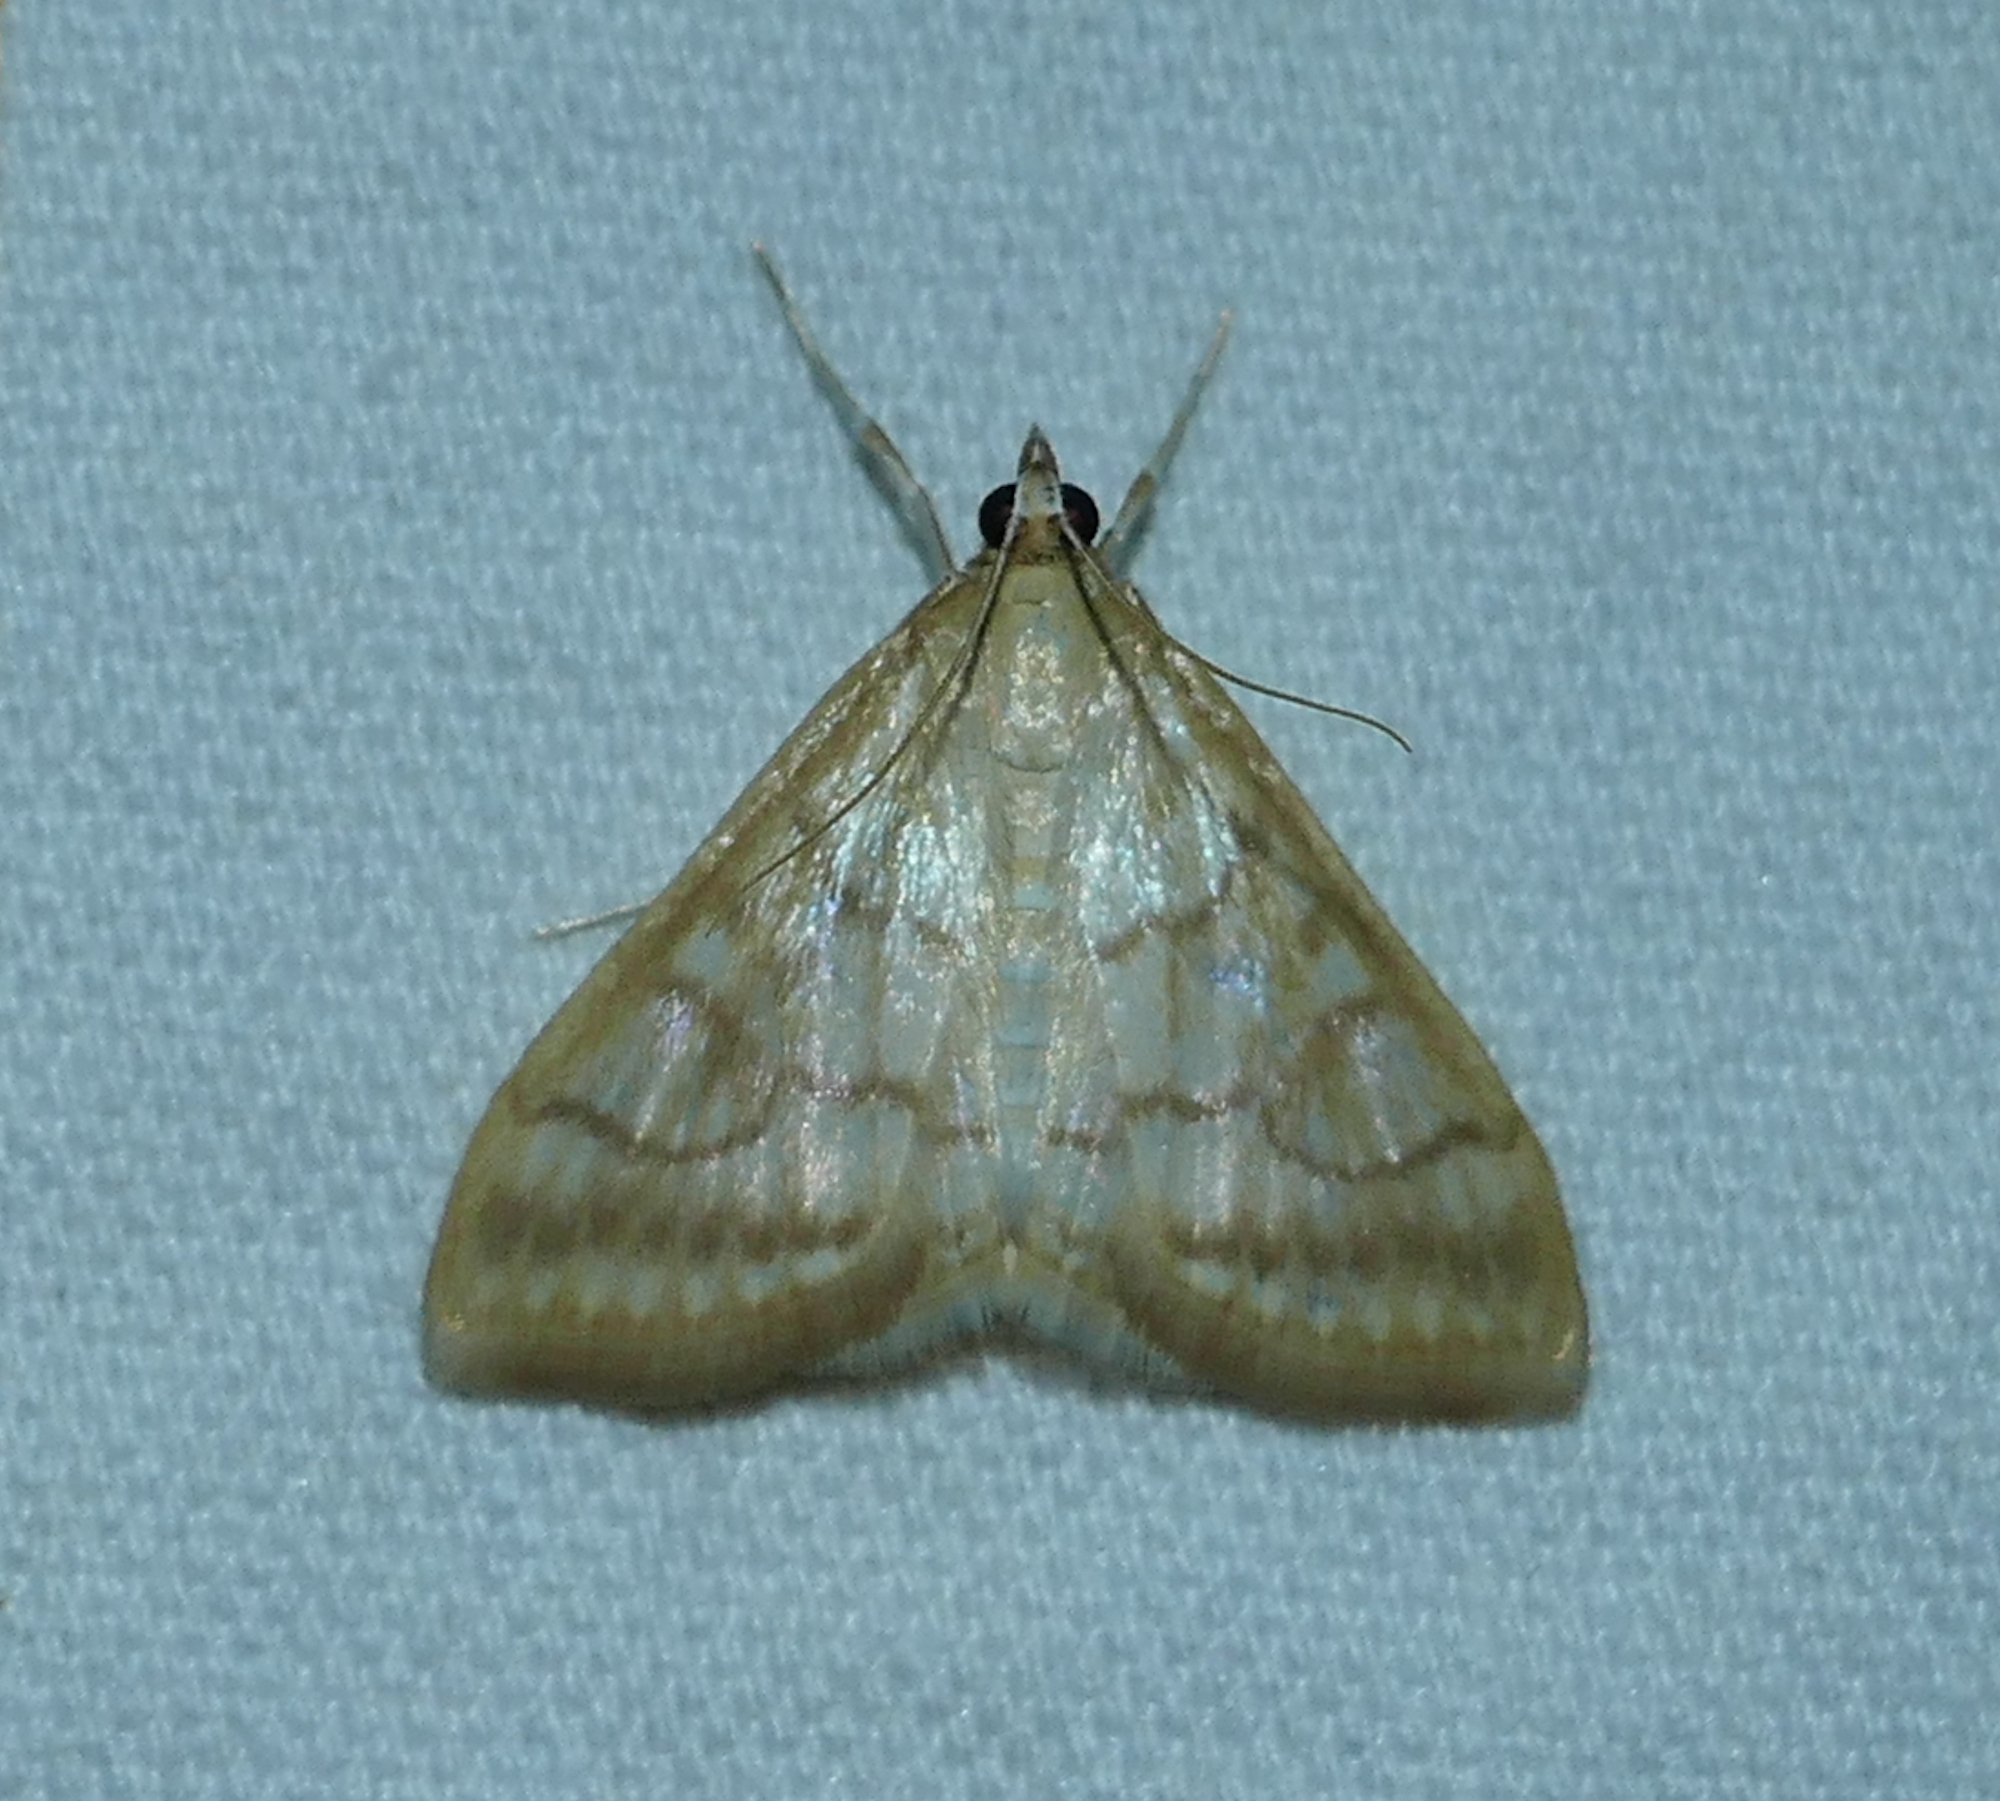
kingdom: Animalia
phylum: Arthropoda
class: Insecta
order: Lepidoptera
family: Crambidae
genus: Hahncappsia
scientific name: Hahncappsia mancalis
